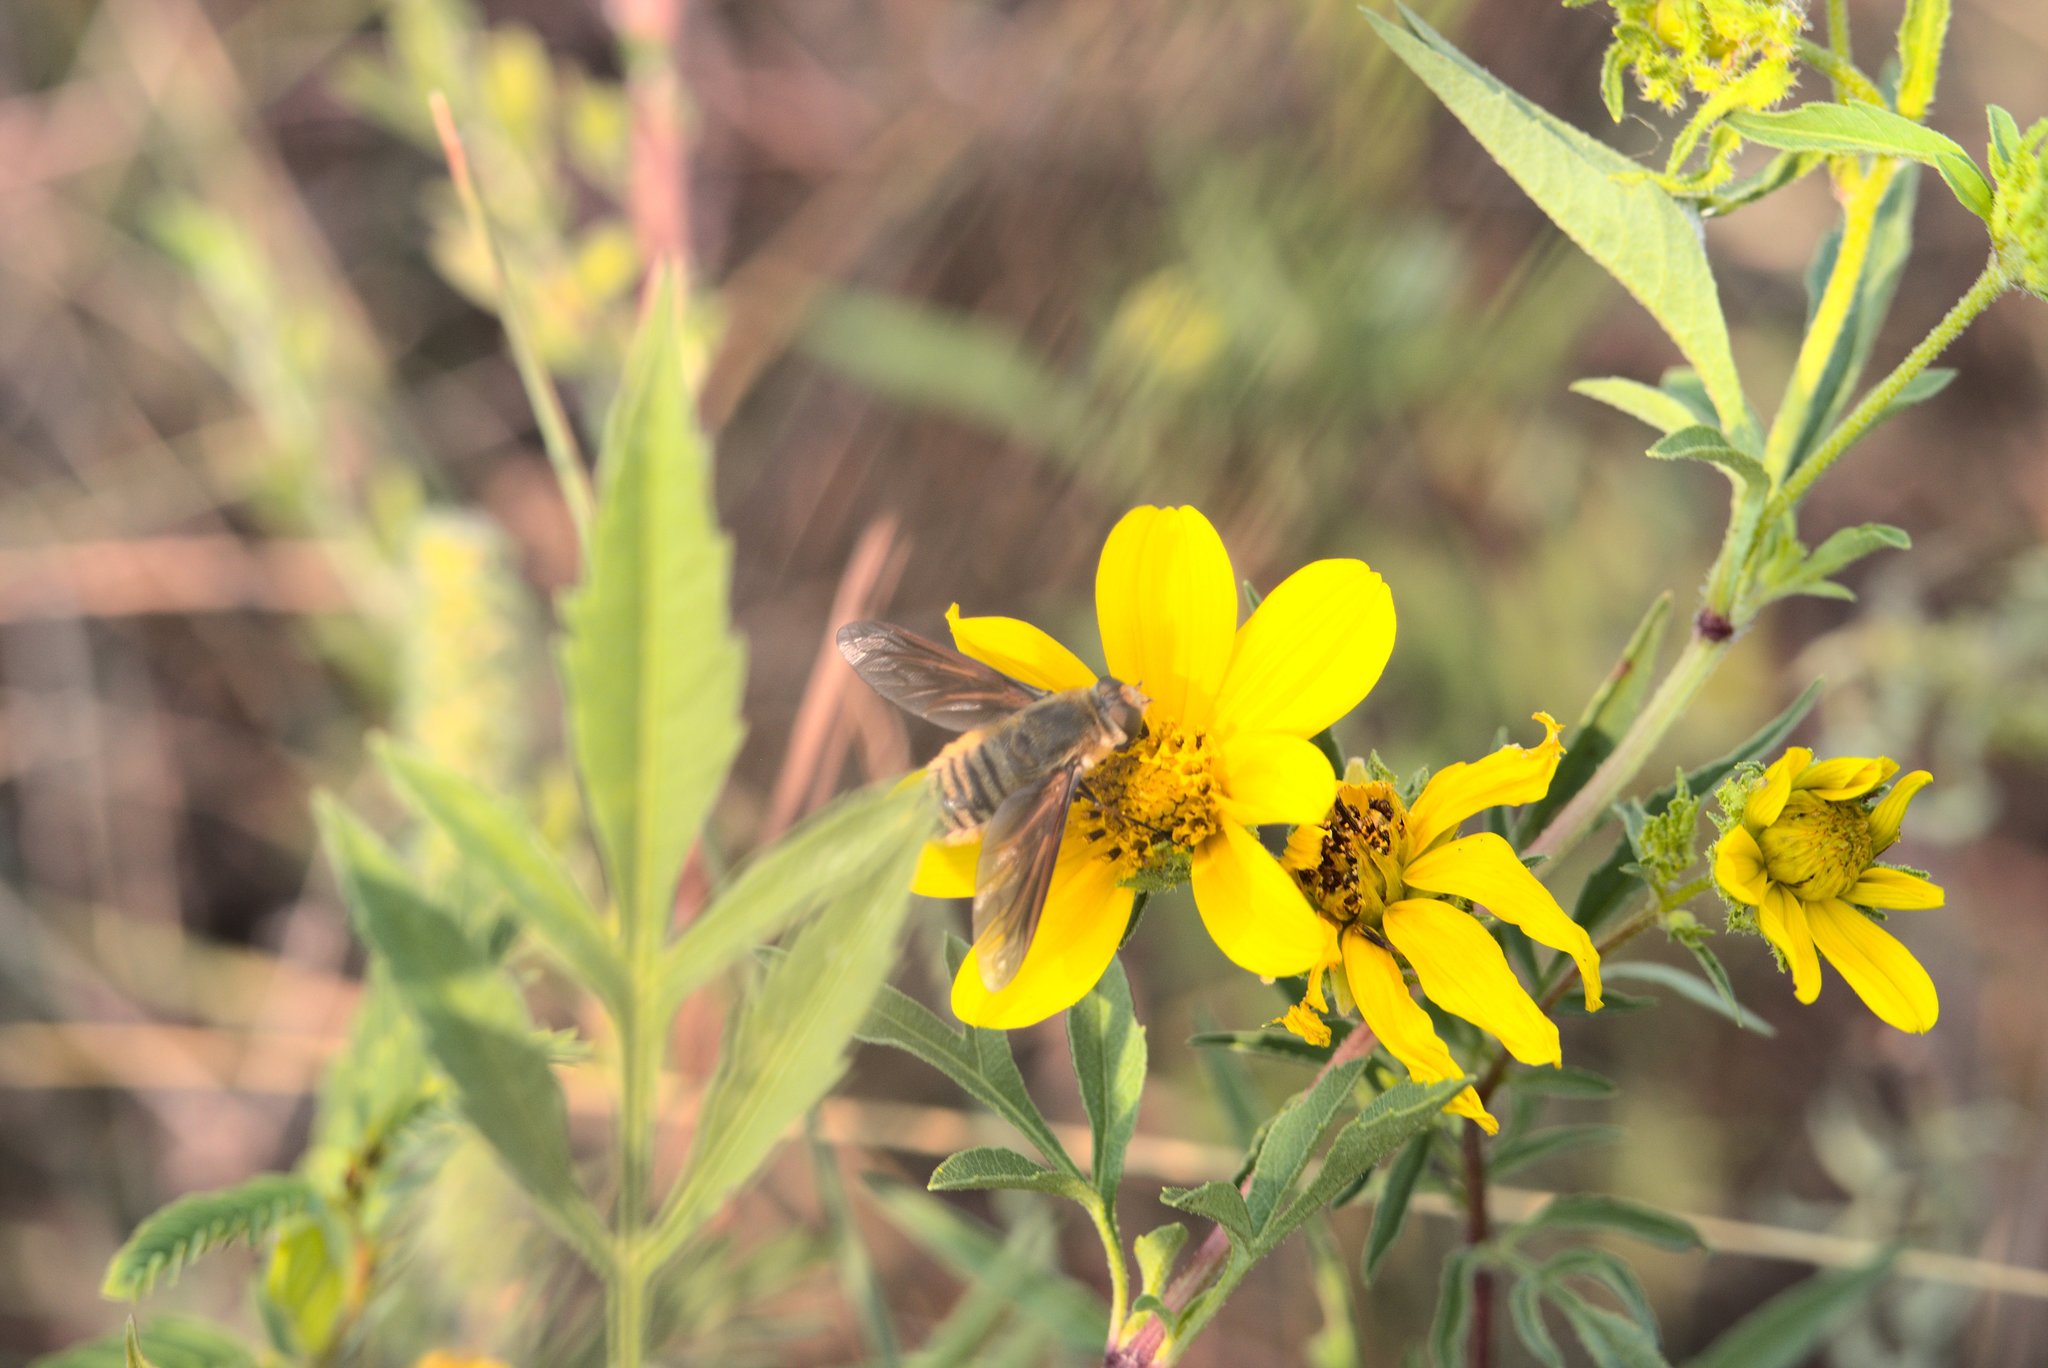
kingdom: Animalia
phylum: Arthropoda
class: Insecta
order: Diptera
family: Bombyliidae
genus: Poecilanthrax
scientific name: Poecilanthrax lucifer
